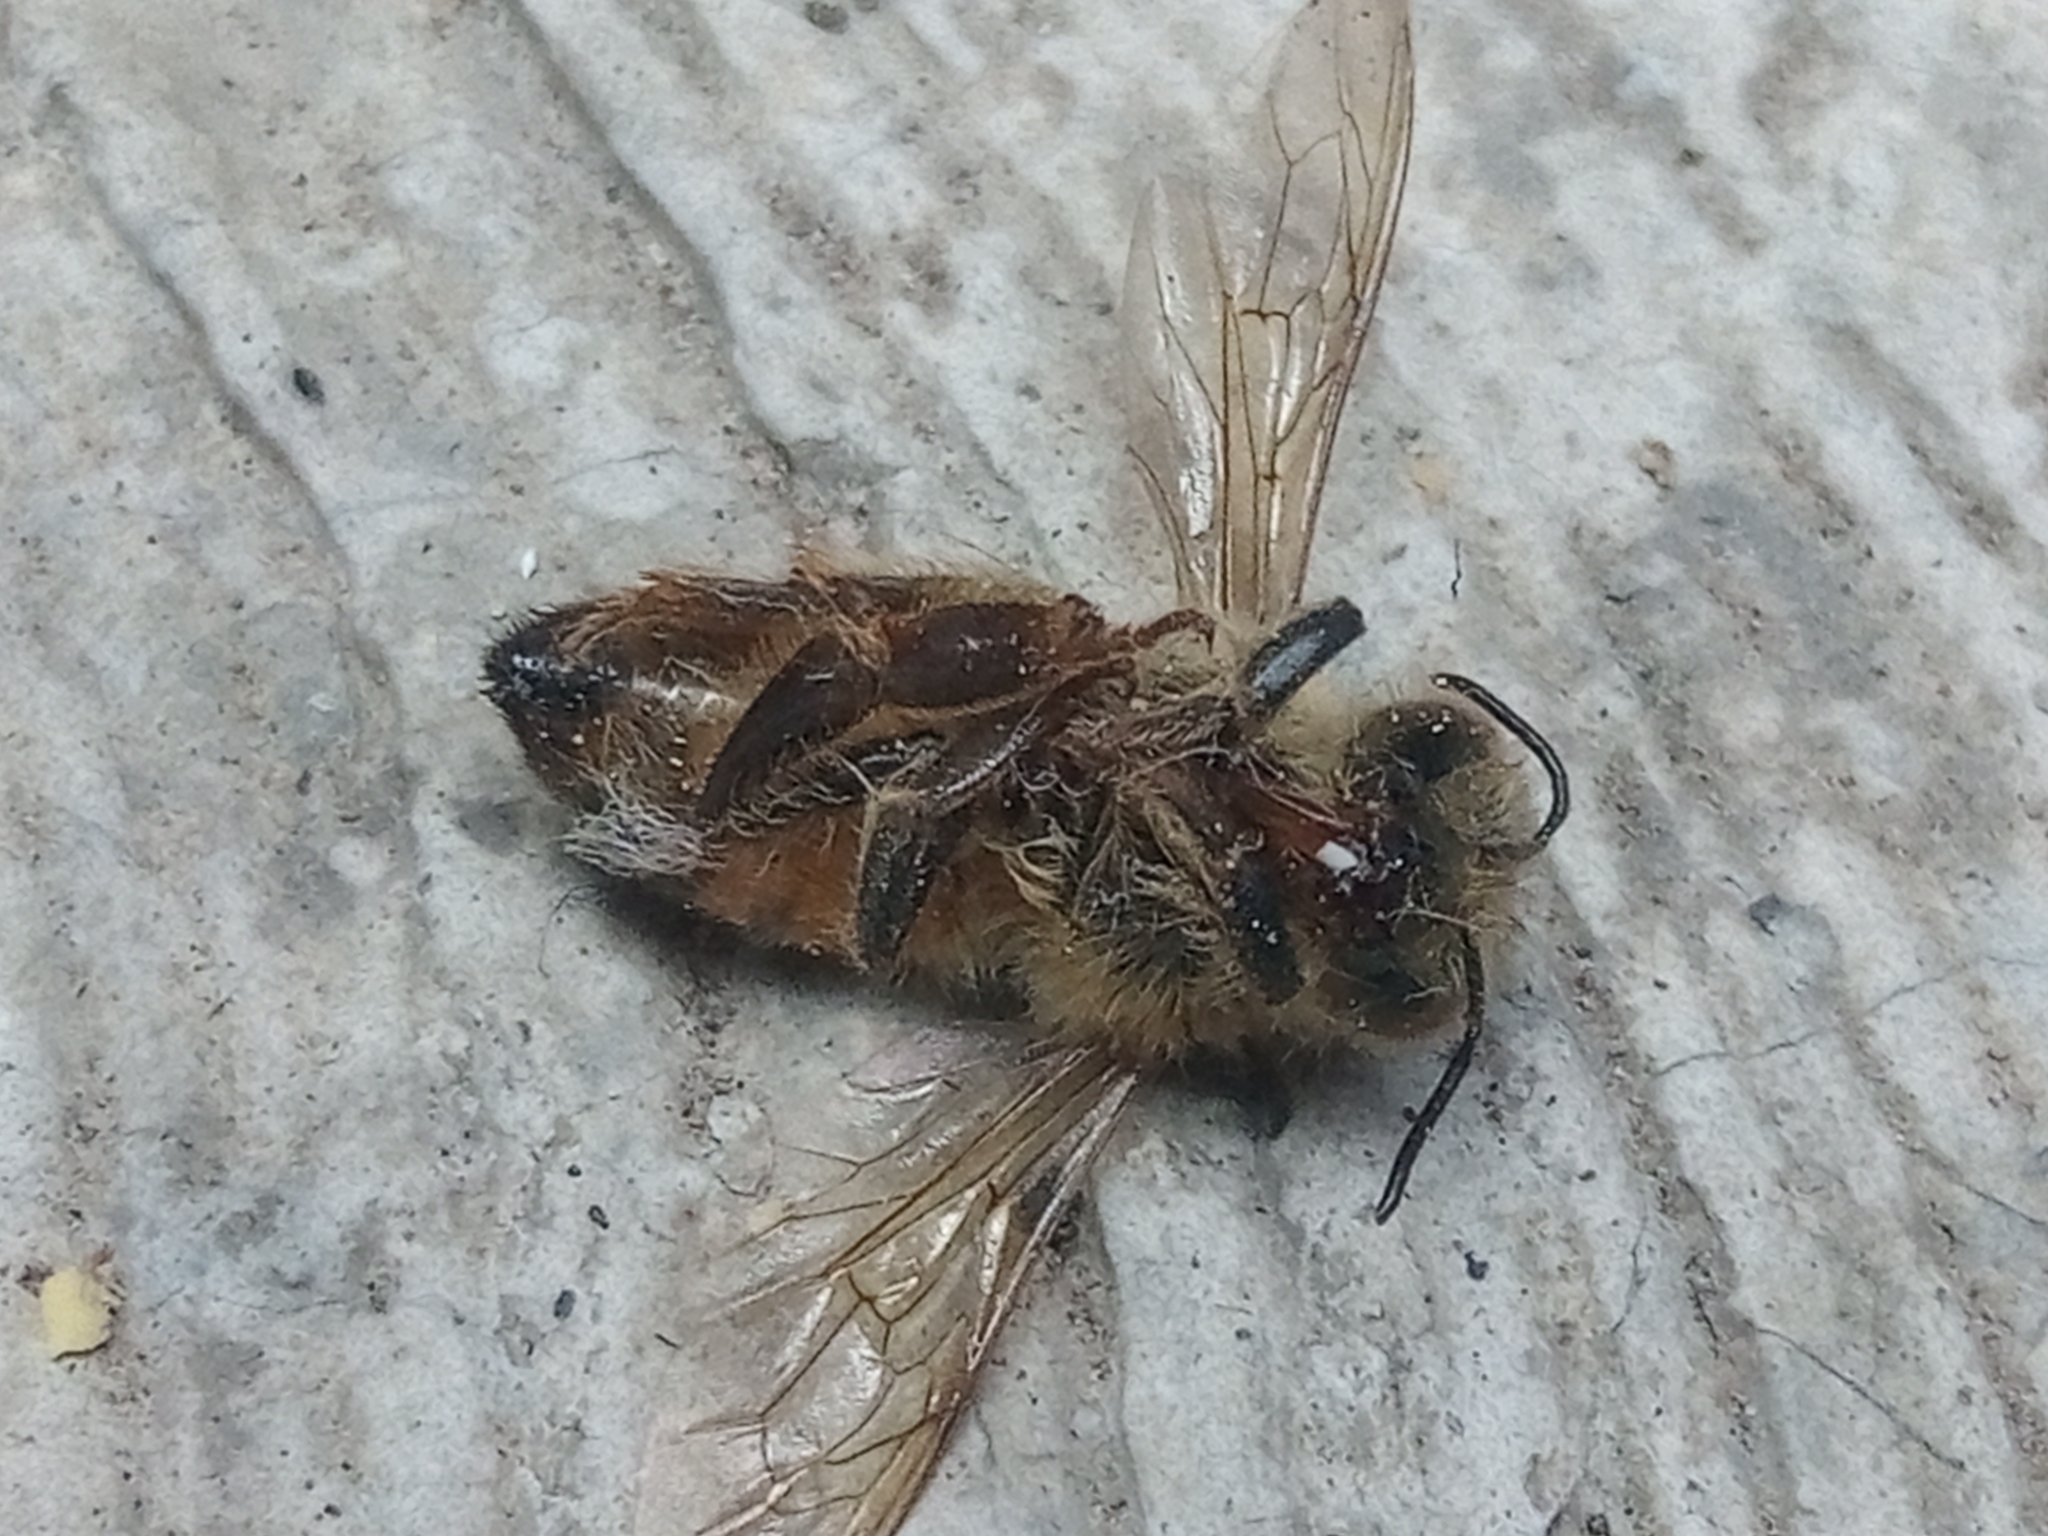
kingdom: Animalia
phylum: Arthropoda
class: Insecta
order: Hymenoptera
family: Apidae
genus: Apis
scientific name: Apis mellifera
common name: Honey bee
